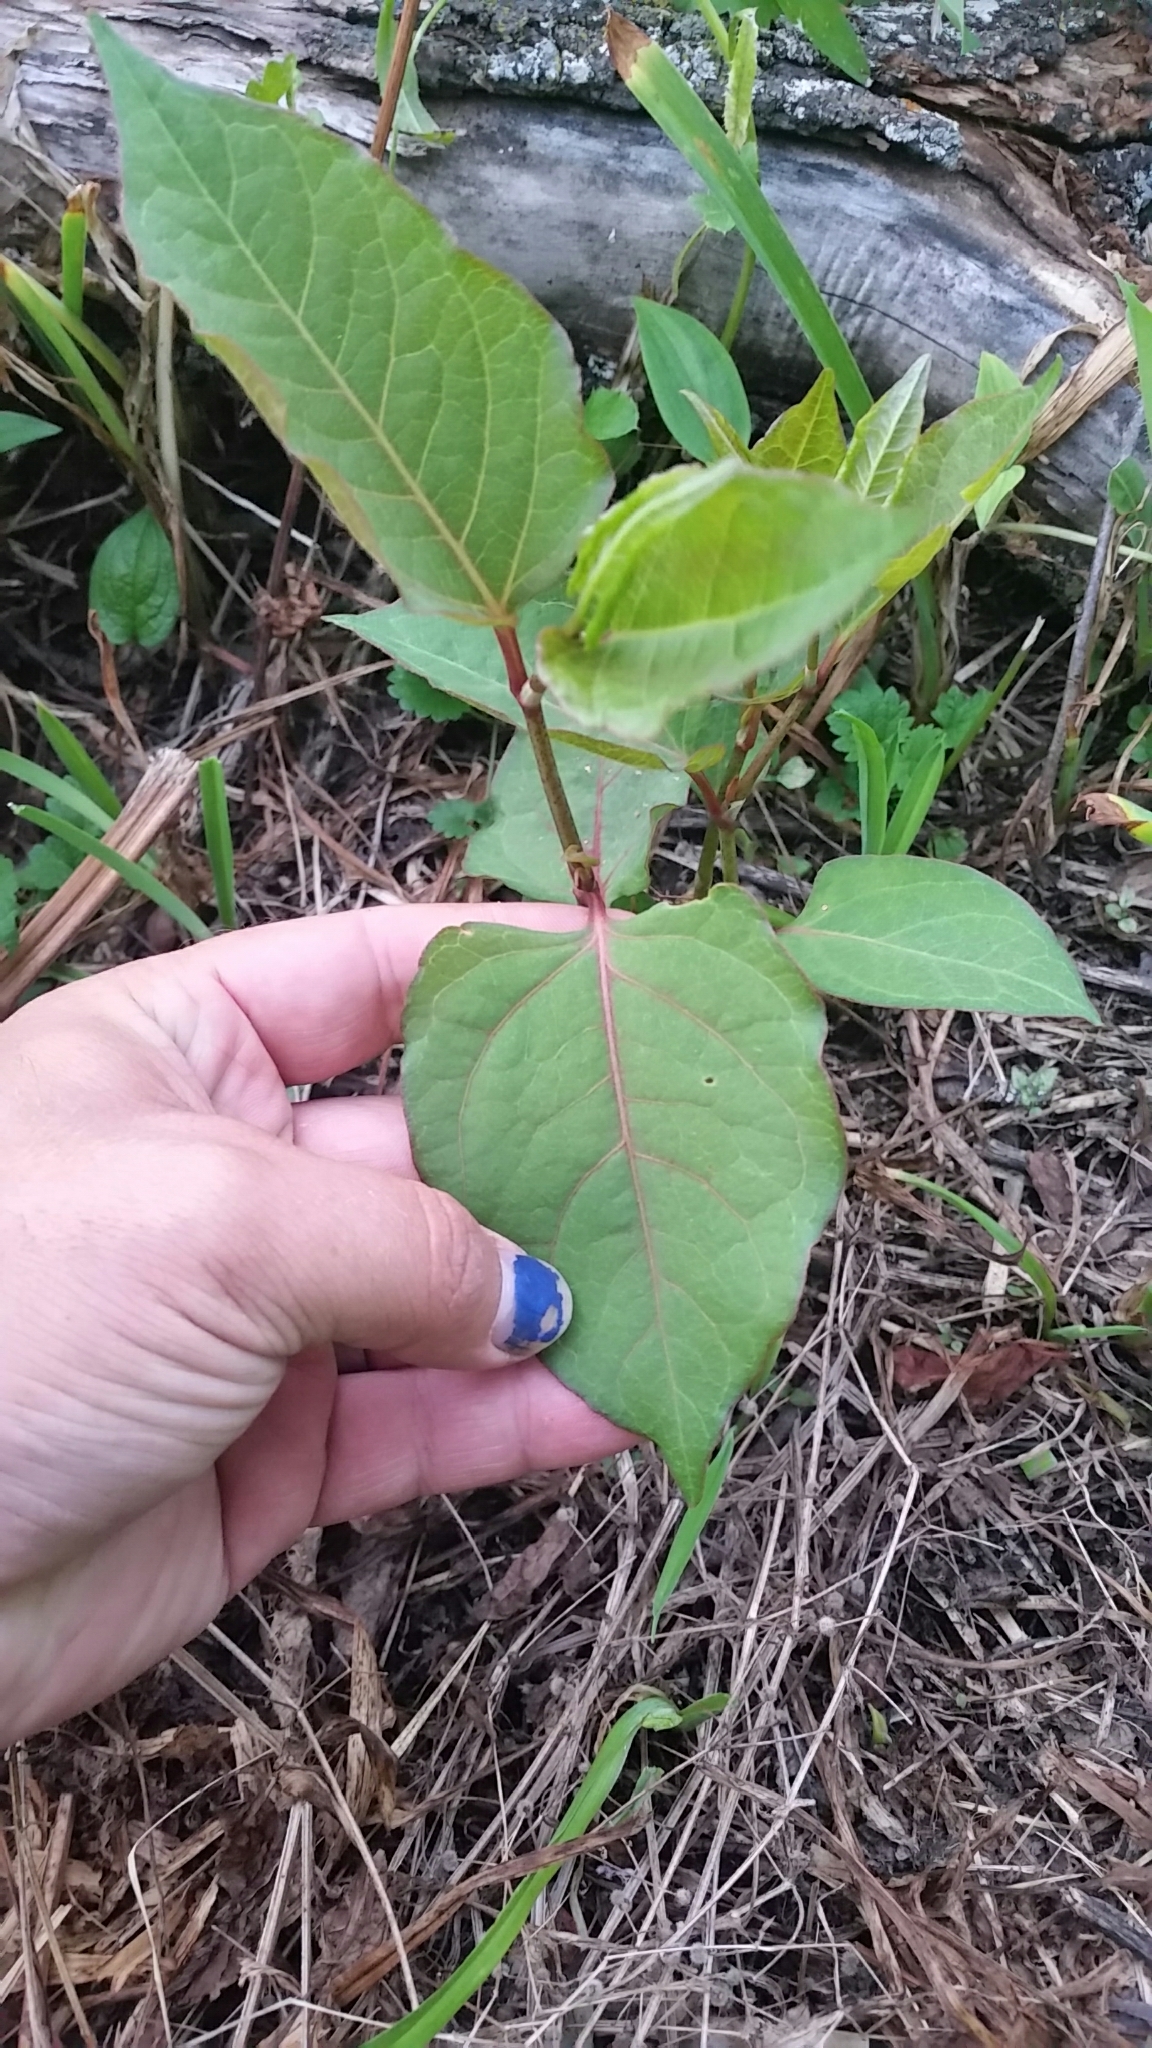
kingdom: Plantae
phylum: Tracheophyta
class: Magnoliopsida
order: Caryophyllales
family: Polygonaceae
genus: Reynoutria
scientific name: Reynoutria japonica
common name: Japanese knotweed
